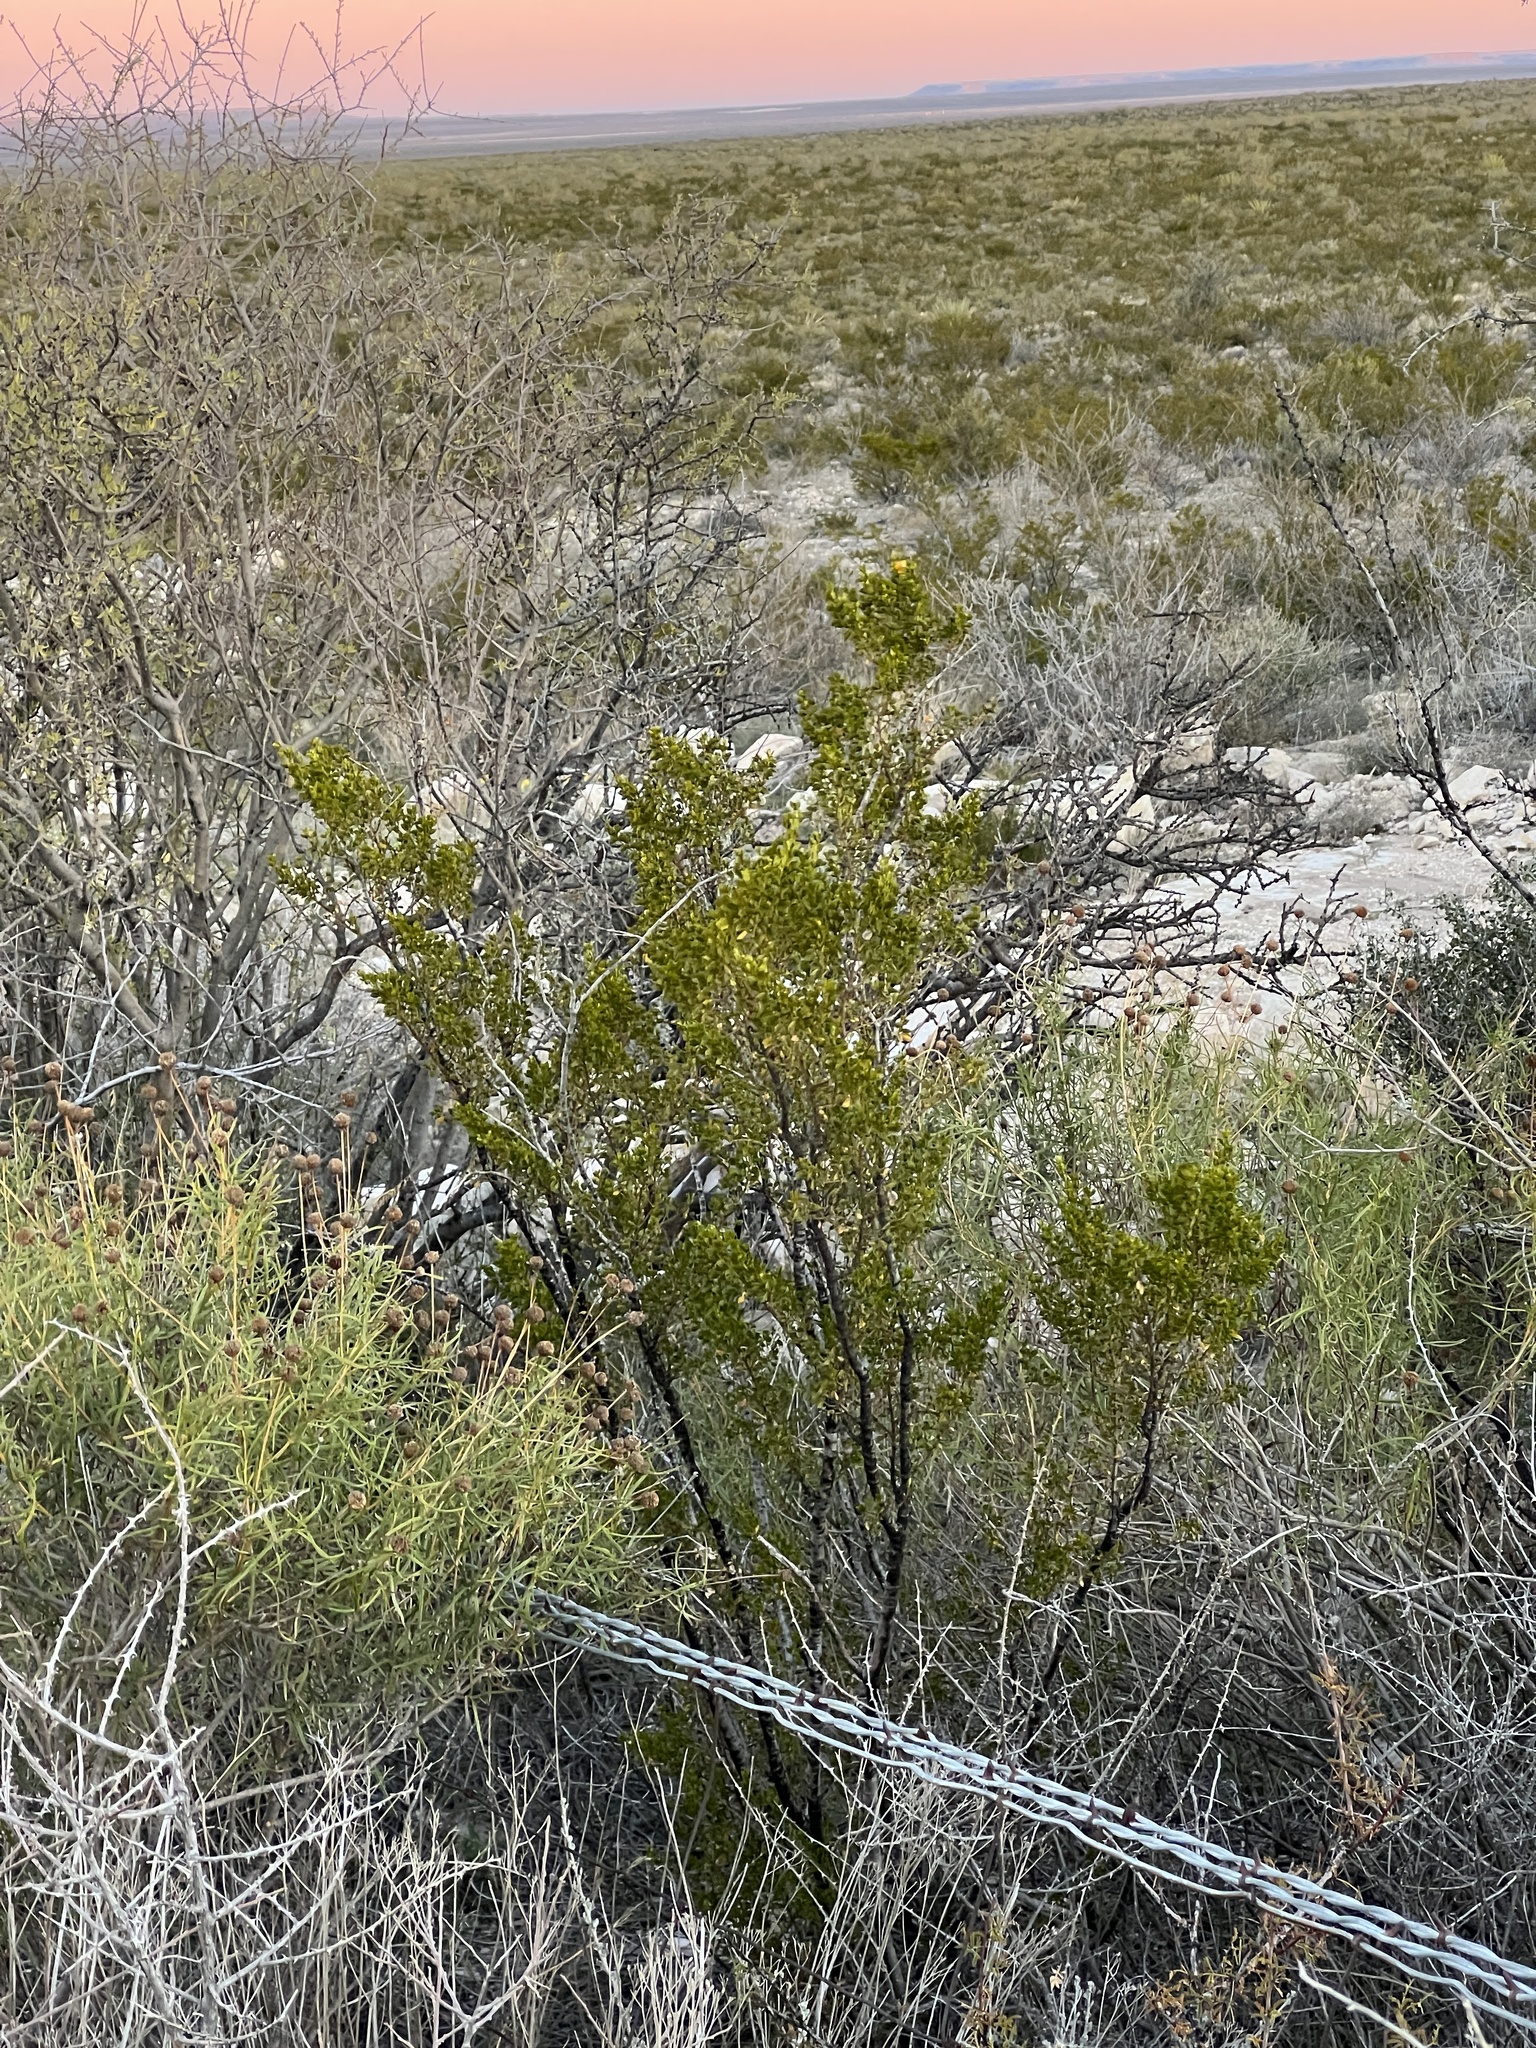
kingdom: Plantae
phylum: Tracheophyta
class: Magnoliopsida
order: Zygophyllales
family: Zygophyllaceae
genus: Larrea
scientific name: Larrea tridentata
